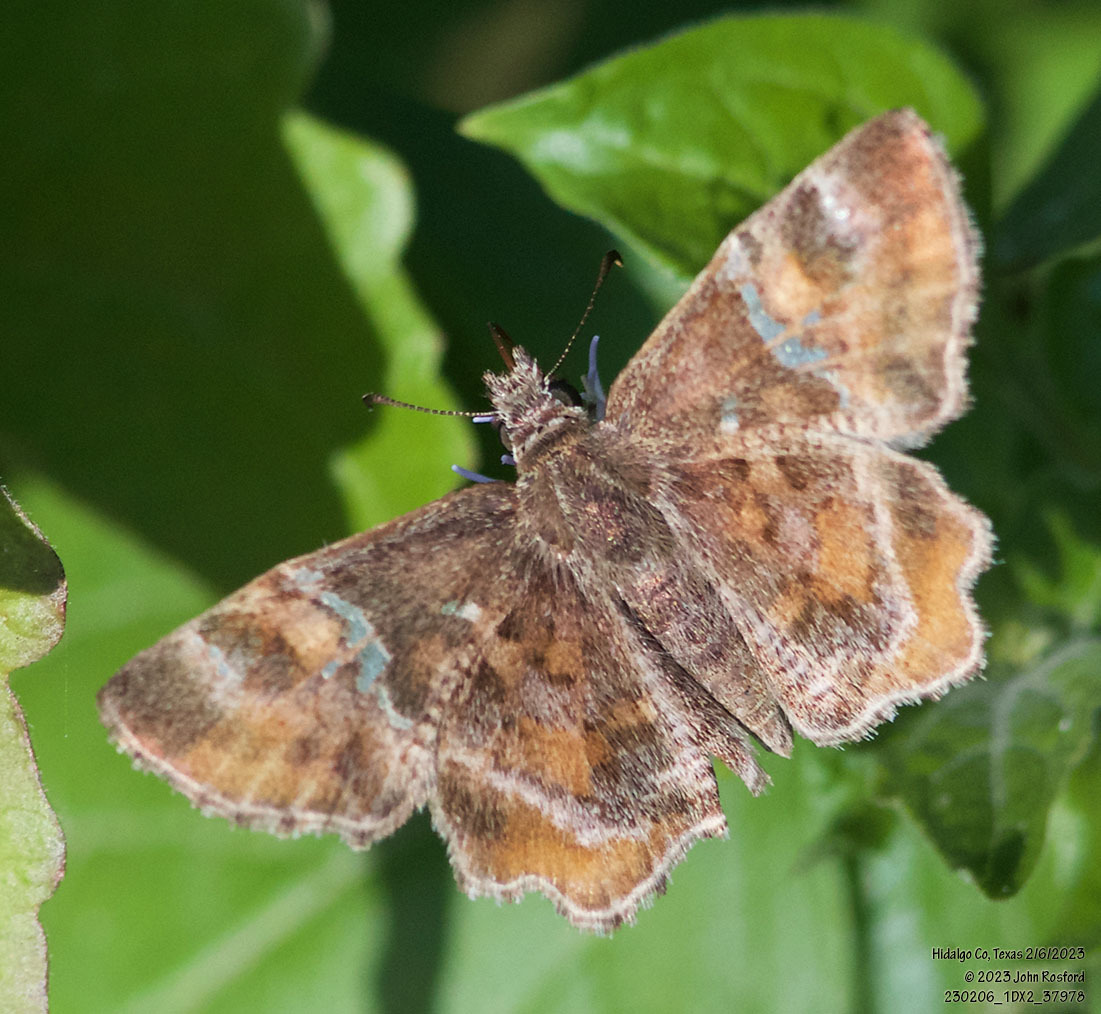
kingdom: Animalia
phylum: Arthropoda
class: Insecta
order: Lepidoptera
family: Hesperiidae
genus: Systasea
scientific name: Systasea pulverulenta
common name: Texas powdered skipper
